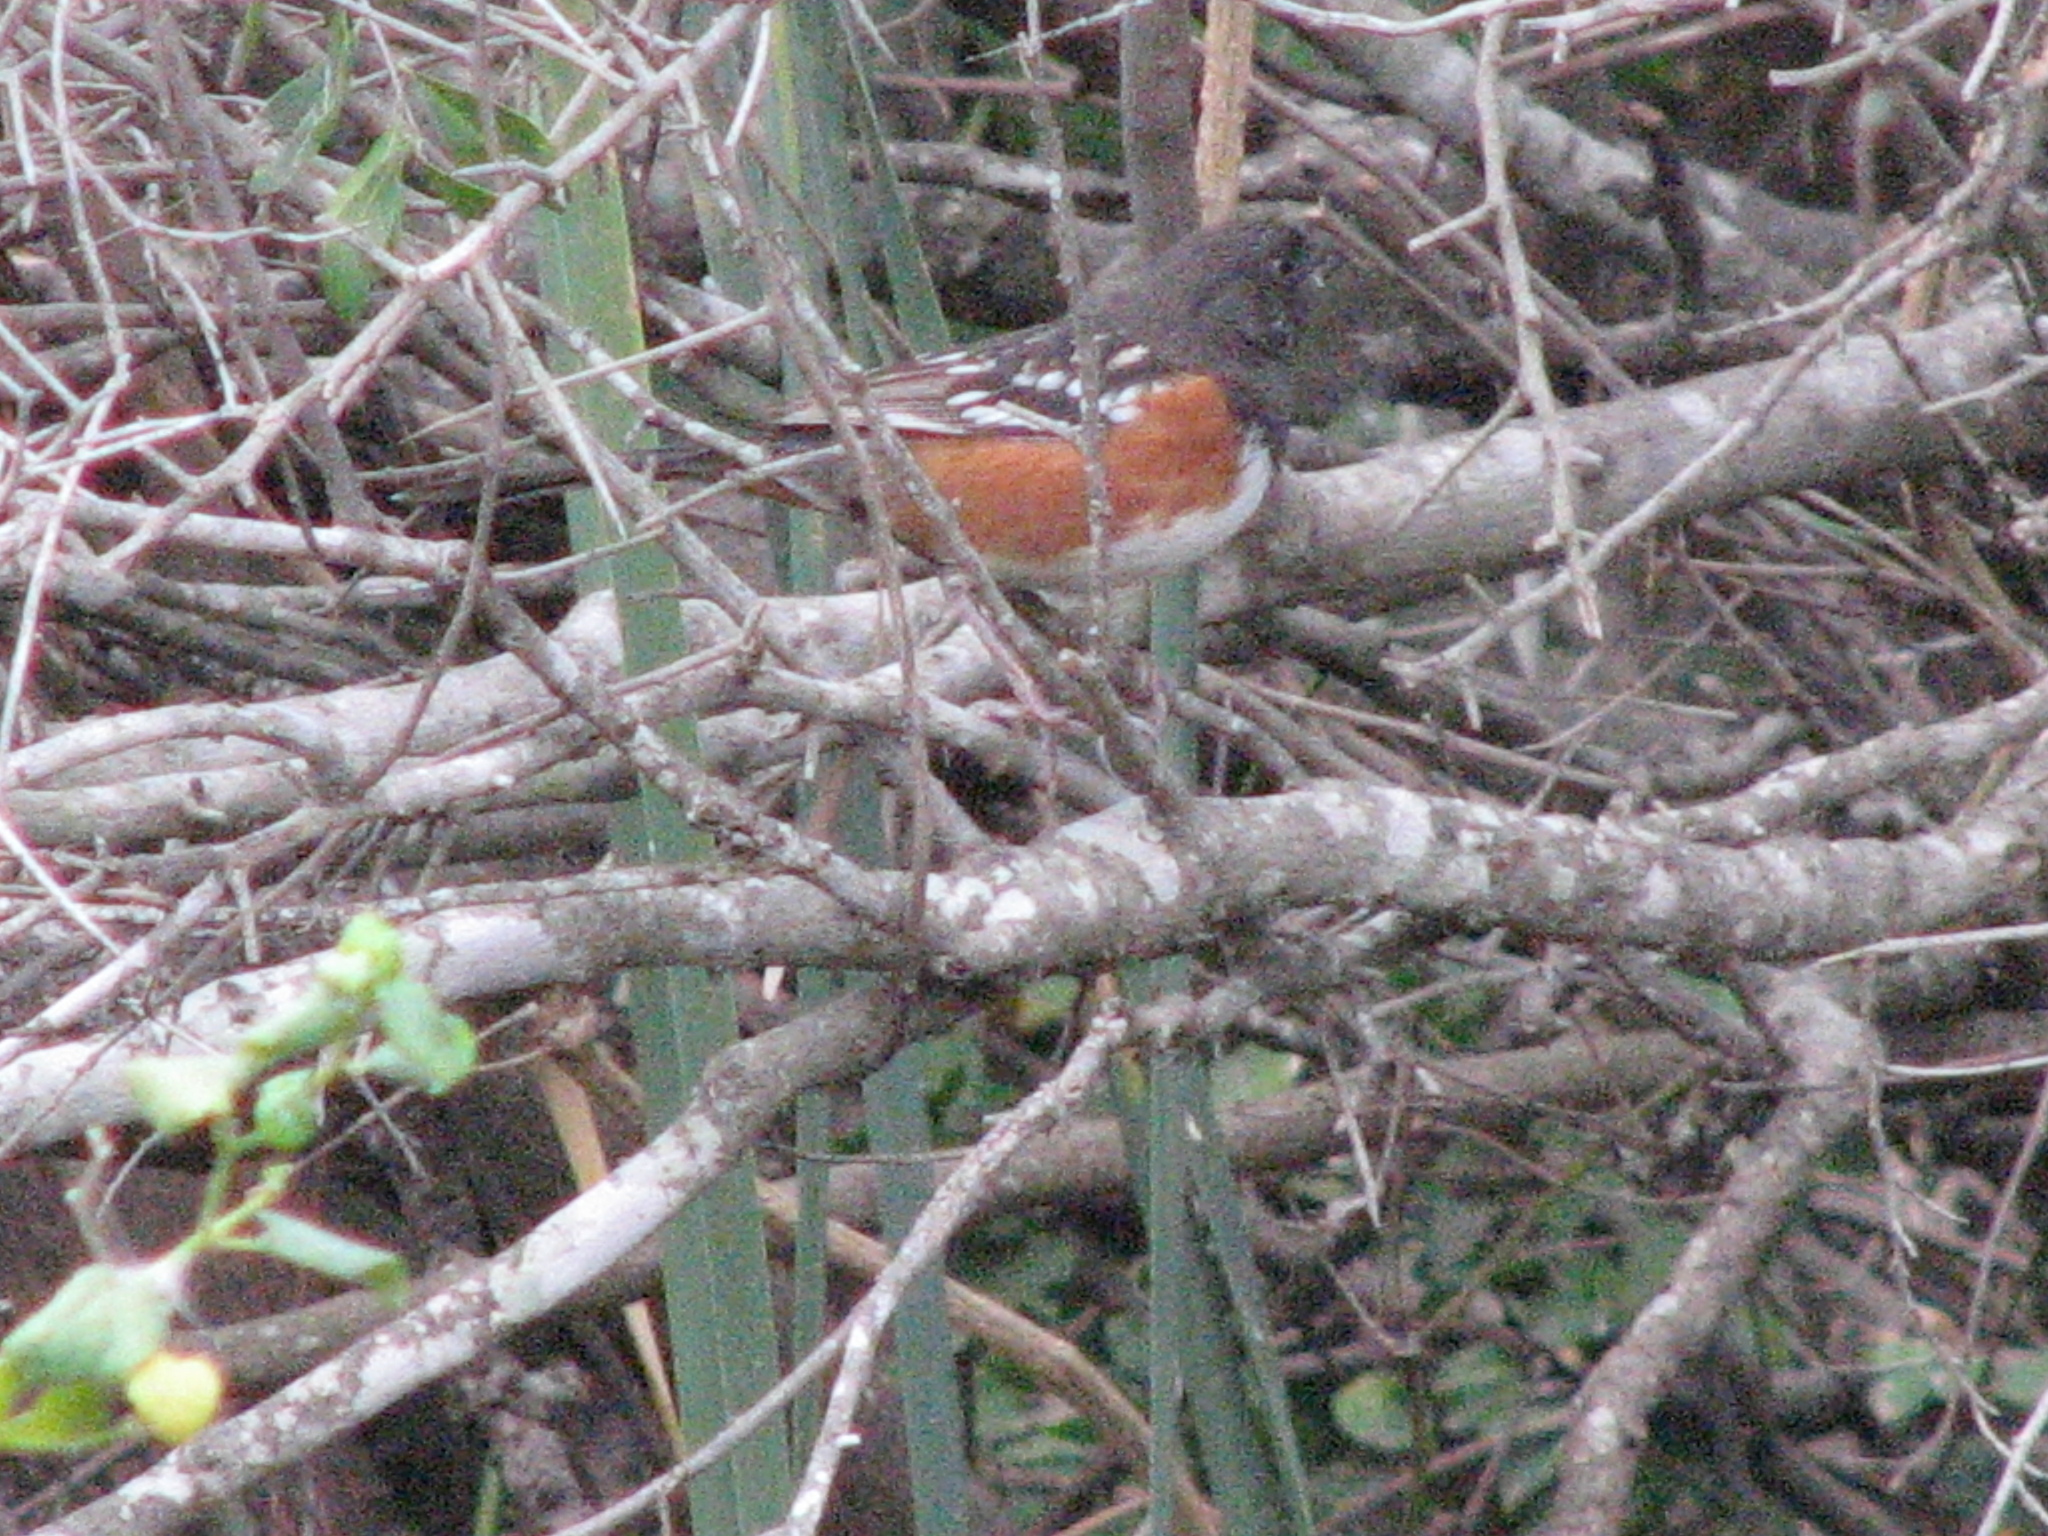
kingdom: Animalia
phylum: Chordata
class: Aves
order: Passeriformes
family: Passerellidae
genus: Pipilo
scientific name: Pipilo maculatus
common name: Spotted towhee
